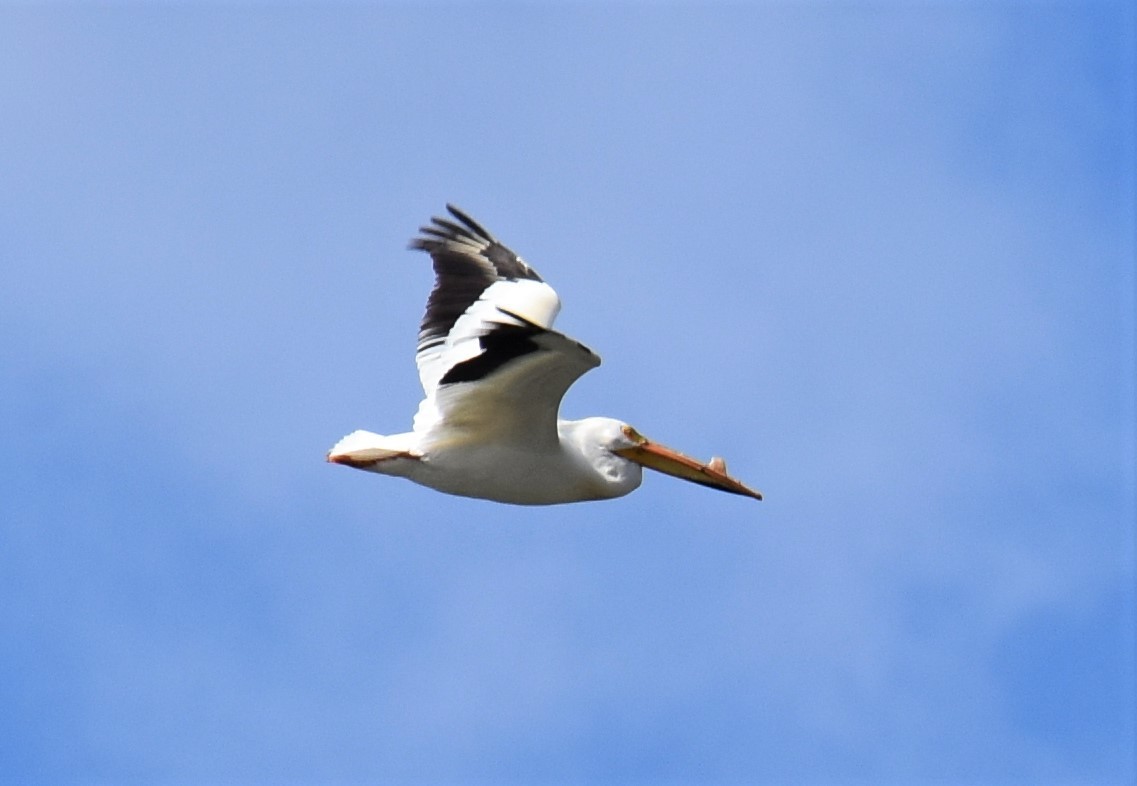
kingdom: Animalia
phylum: Chordata
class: Aves
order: Pelecaniformes
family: Pelecanidae
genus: Pelecanus
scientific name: Pelecanus erythrorhynchos
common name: American white pelican
